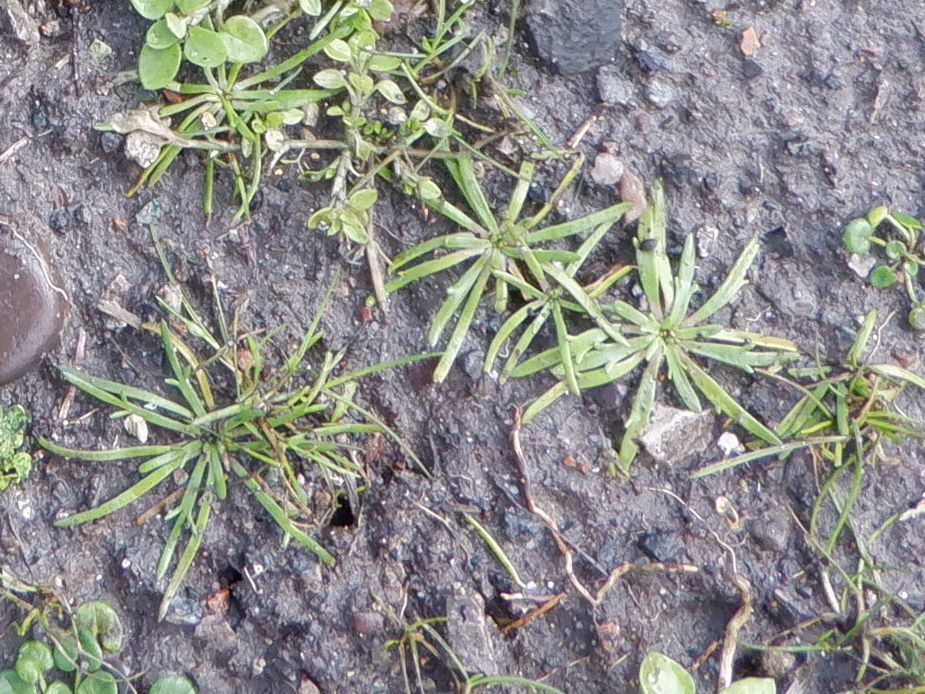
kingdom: Plantae
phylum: Tracheophyta
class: Magnoliopsida
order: Lamiales
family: Plantaginaceae
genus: Plantago
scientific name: Plantago coronopus
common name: Buck's-horn plantain
